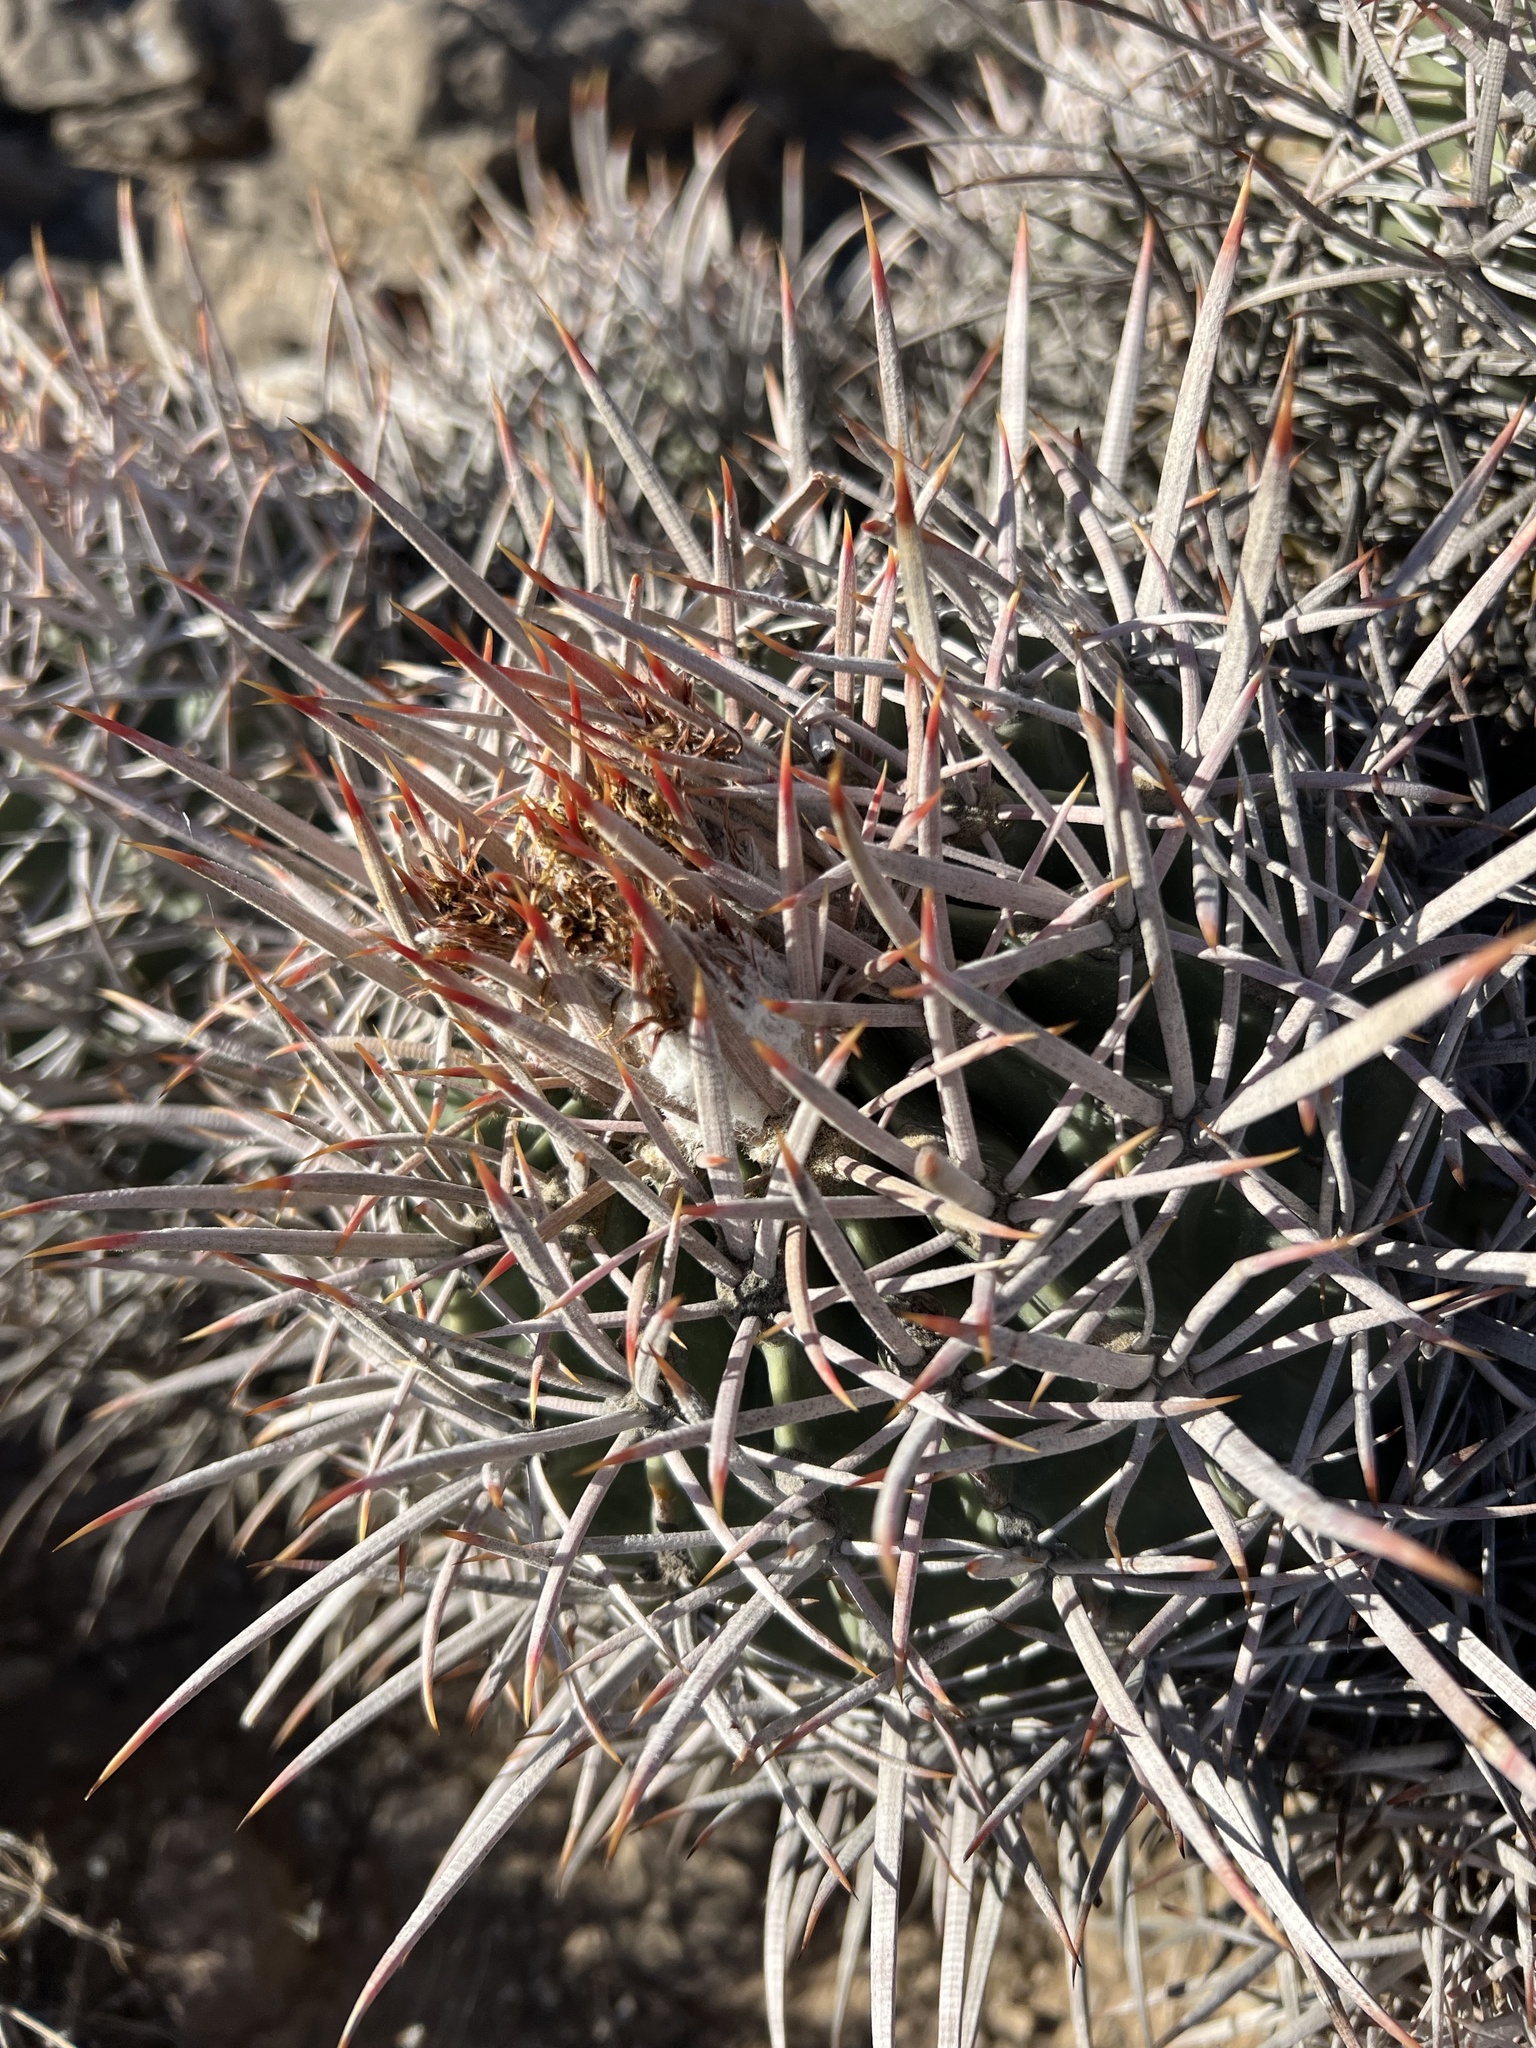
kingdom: Plantae
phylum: Tracheophyta
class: Magnoliopsida
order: Caryophyllales
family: Cactaceae
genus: Echinocactus
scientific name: Echinocactus polycephalus
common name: Cottontop cactus
